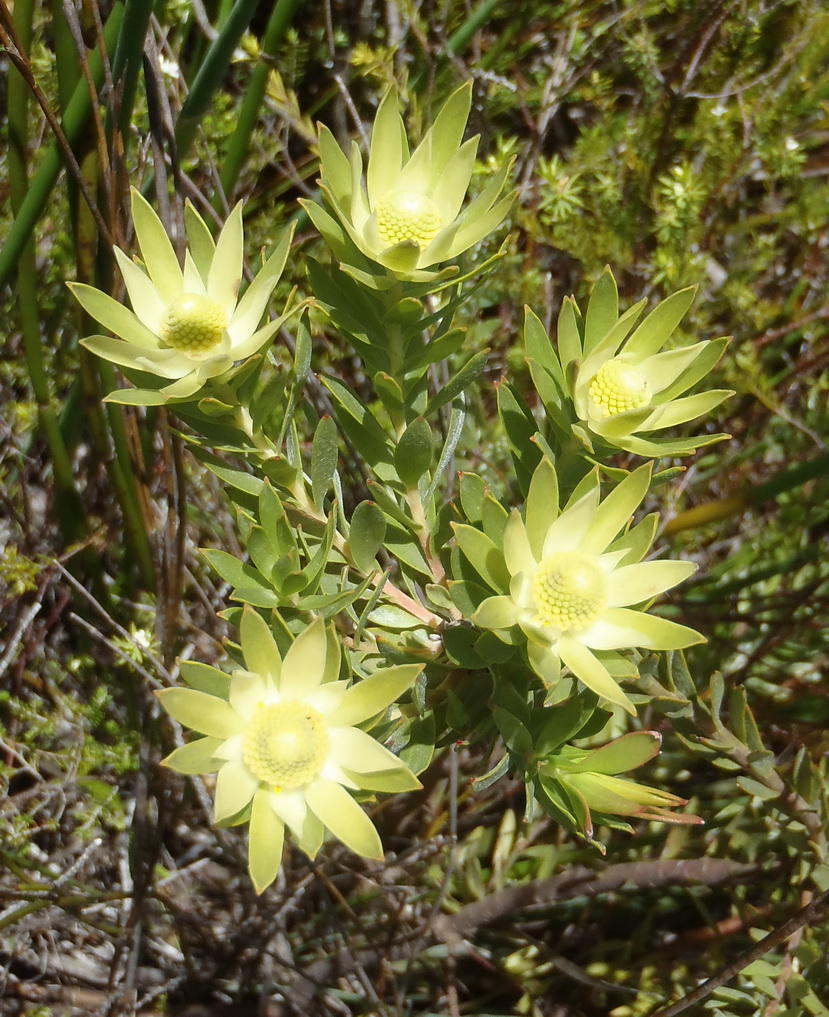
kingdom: Plantae
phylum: Tracheophyta
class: Magnoliopsida
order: Proteales
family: Proteaceae
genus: Leucadendron
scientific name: Leucadendron uliginosum
